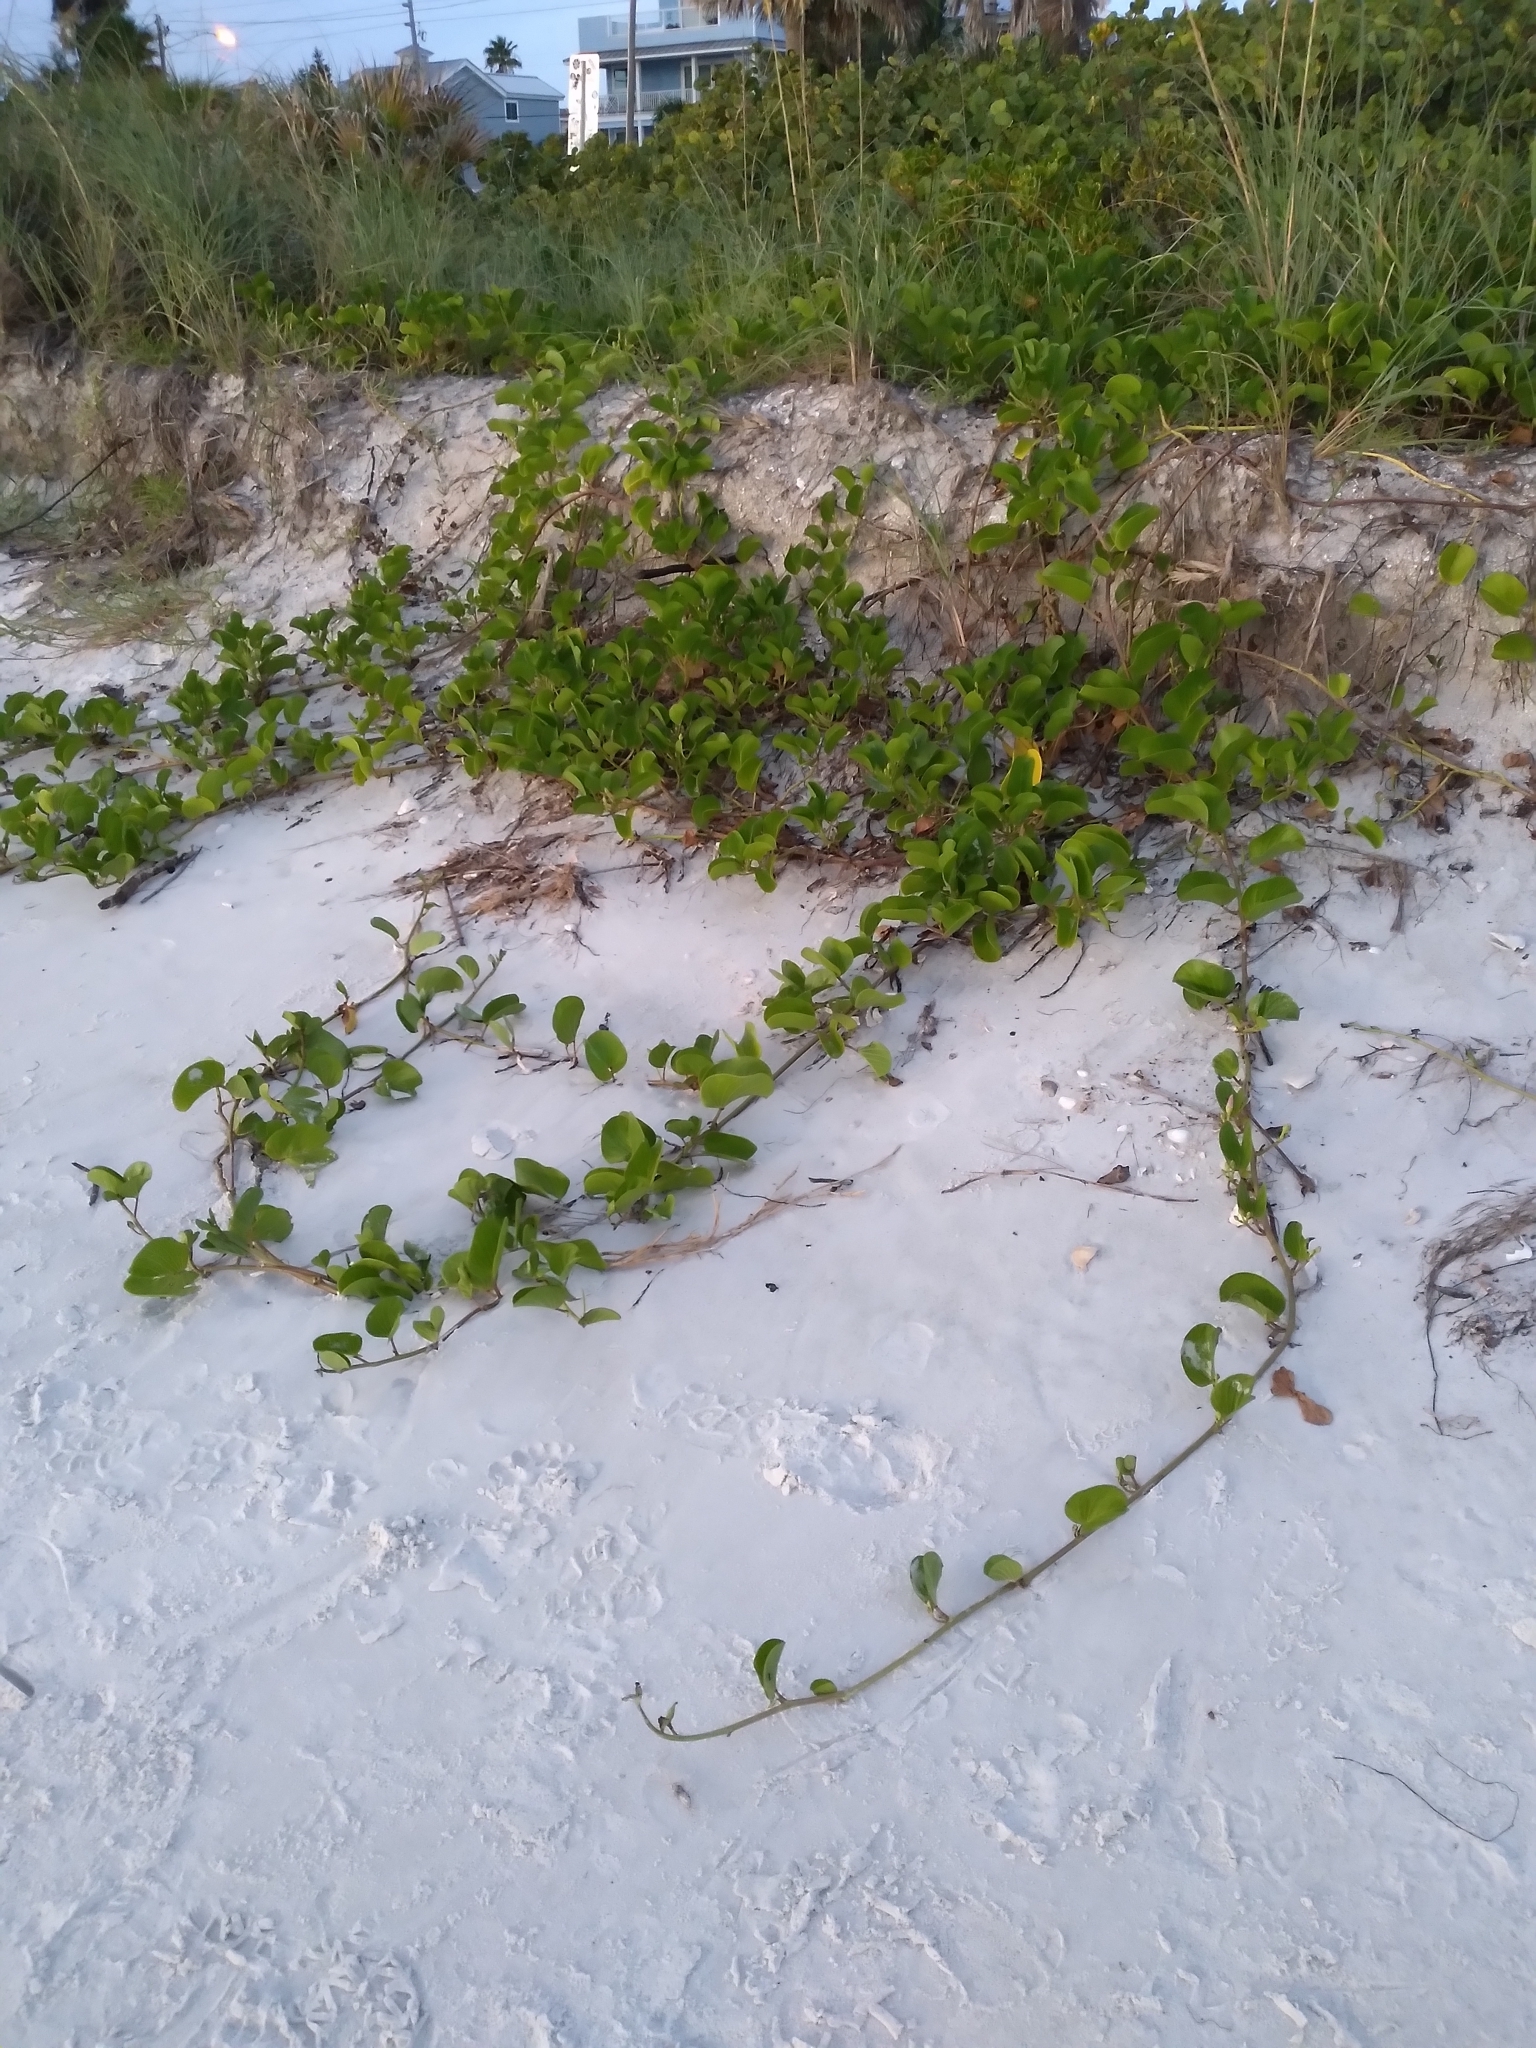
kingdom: Plantae
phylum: Tracheophyta
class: Magnoliopsida
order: Solanales
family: Convolvulaceae
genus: Ipomoea
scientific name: Ipomoea pes-caprae
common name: Beach morning glory
